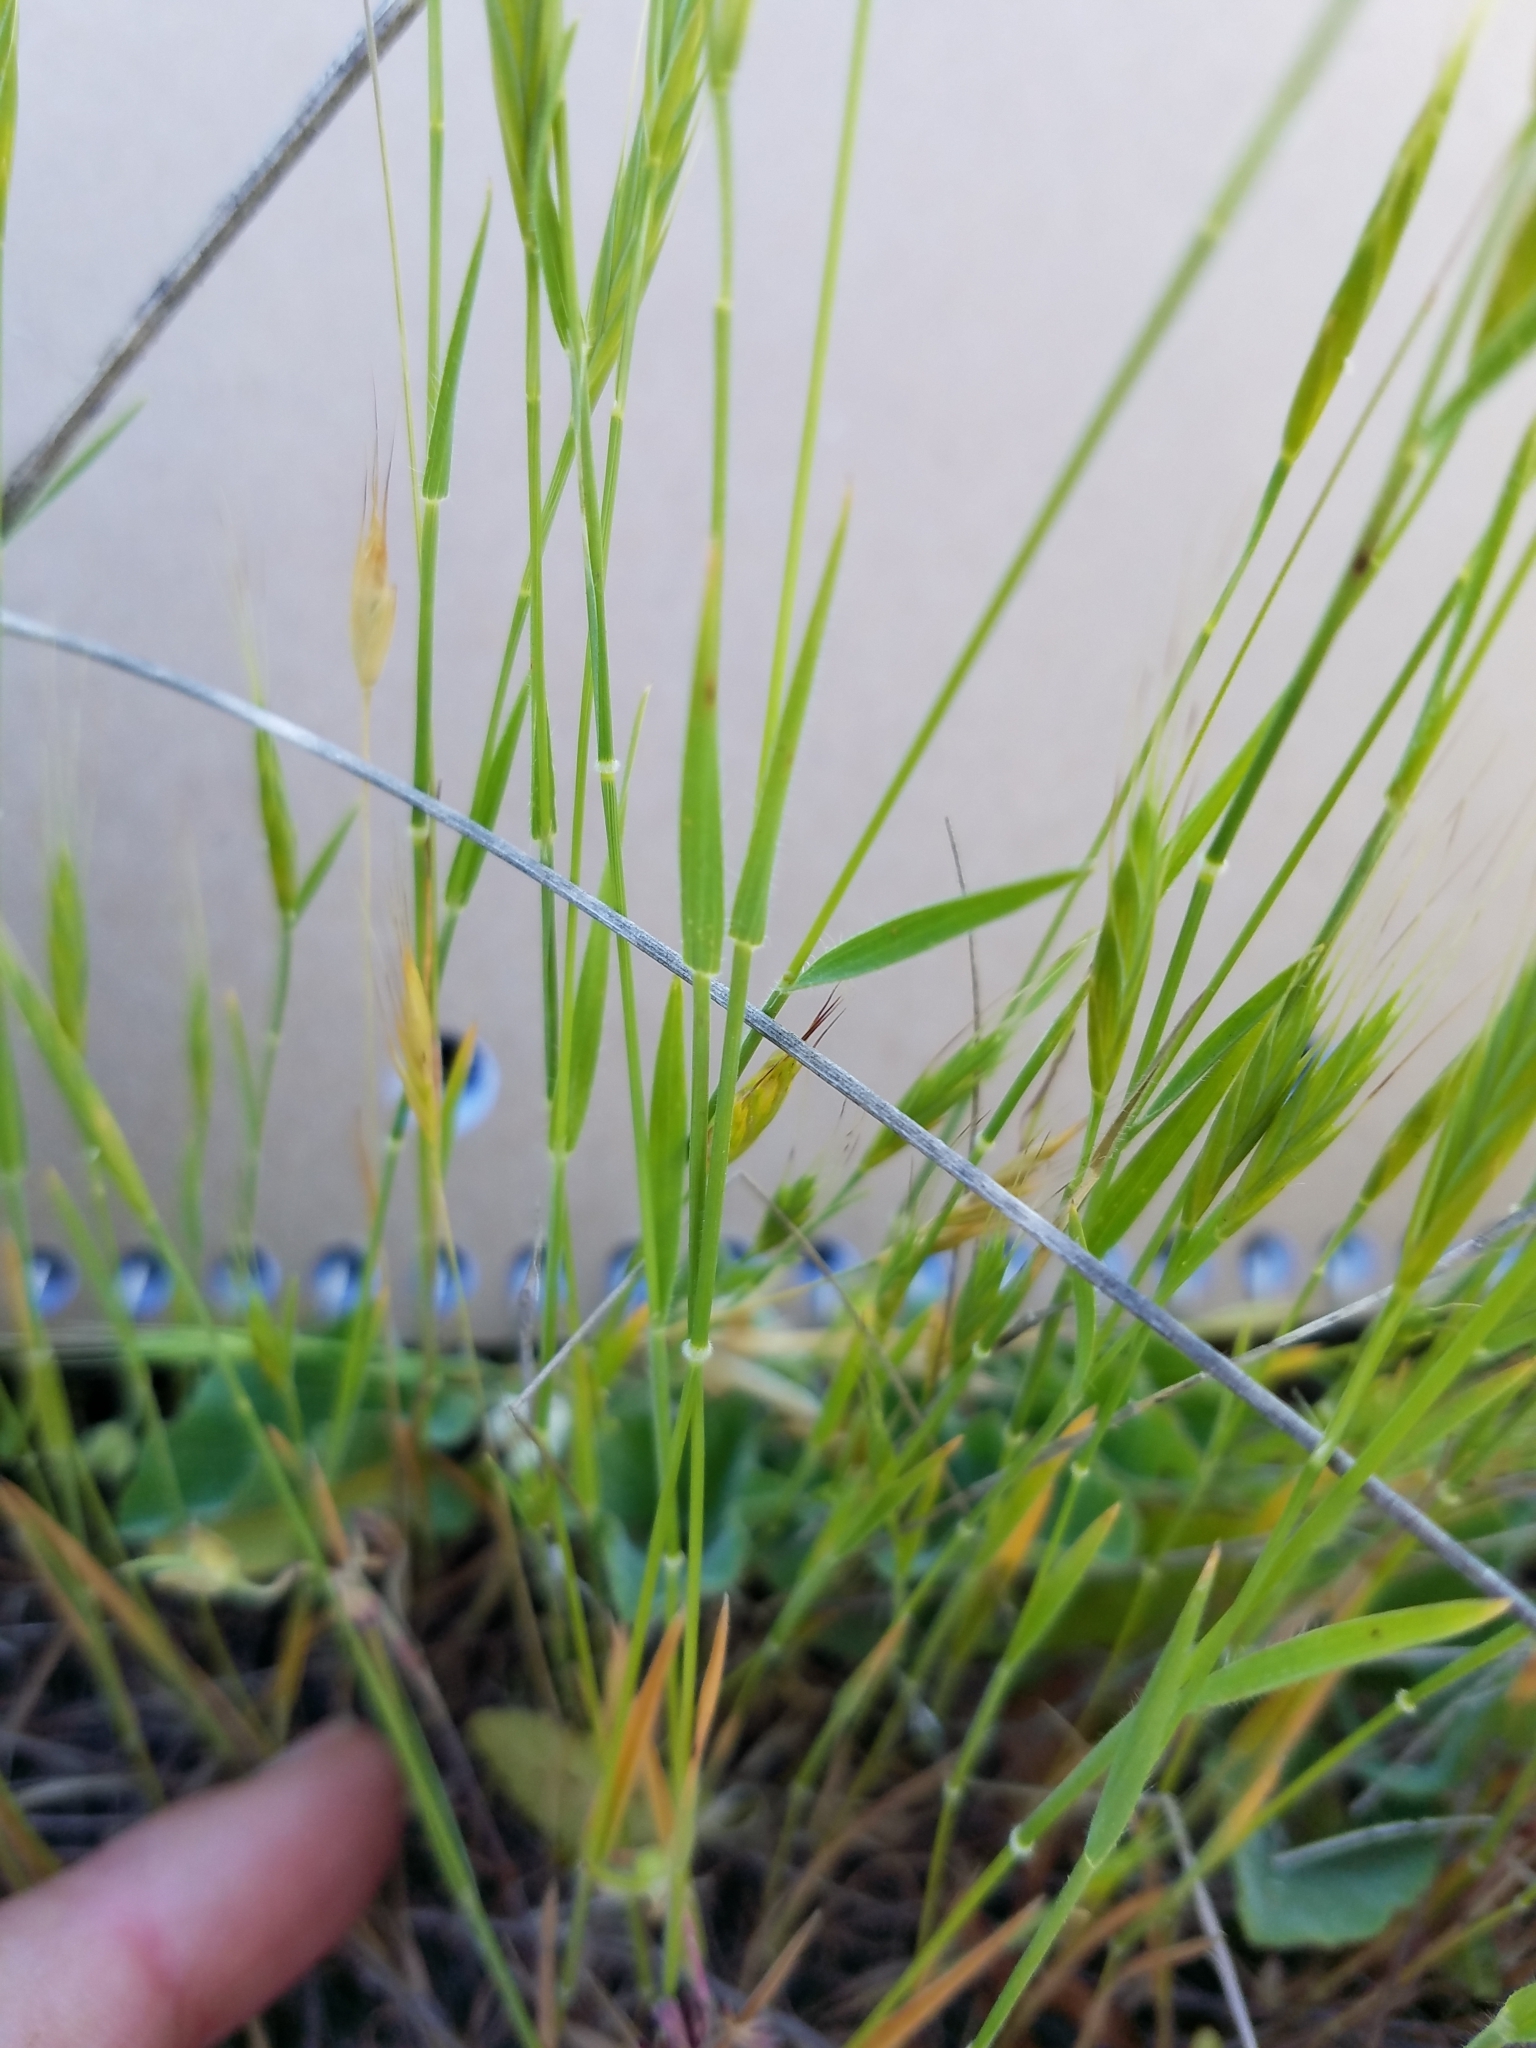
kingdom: Plantae
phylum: Tracheophyta
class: Liliopsida
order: Poales
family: Poaceae
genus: Brachypodium
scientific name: Brachypodium distachyon
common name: Stiff brome
